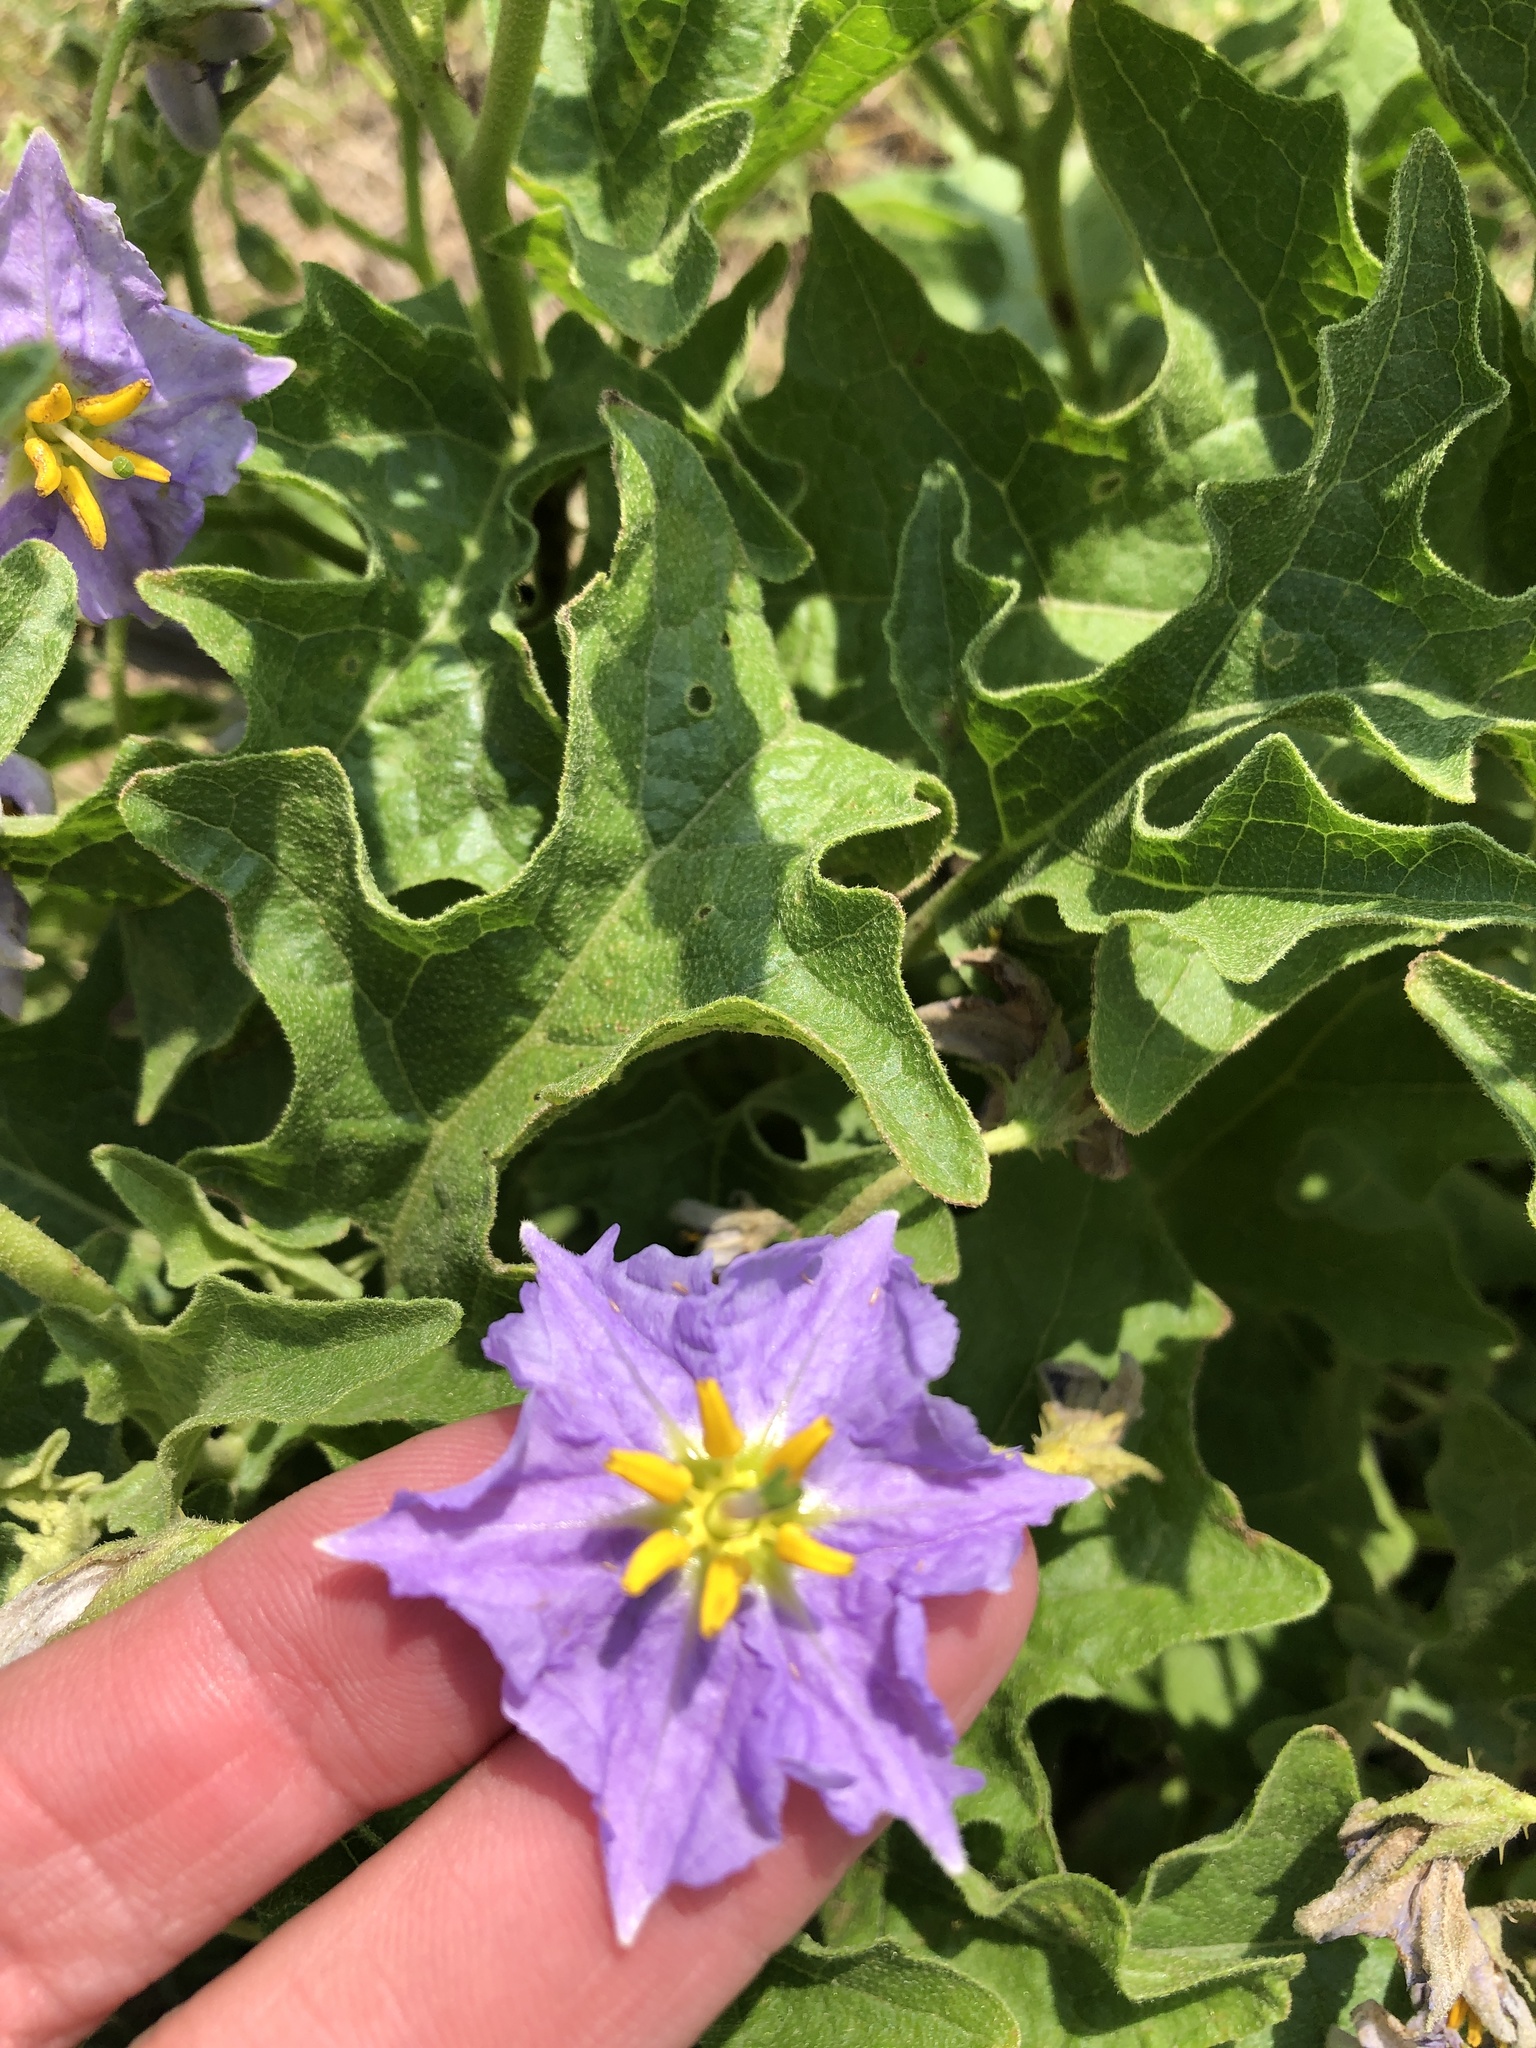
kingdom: Plantae
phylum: Tracheophyta
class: Magnoliopsida
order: Solanales
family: Solanaceae
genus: Solanum
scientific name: Solanum dimidiatum
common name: Carolina horse-nettle
